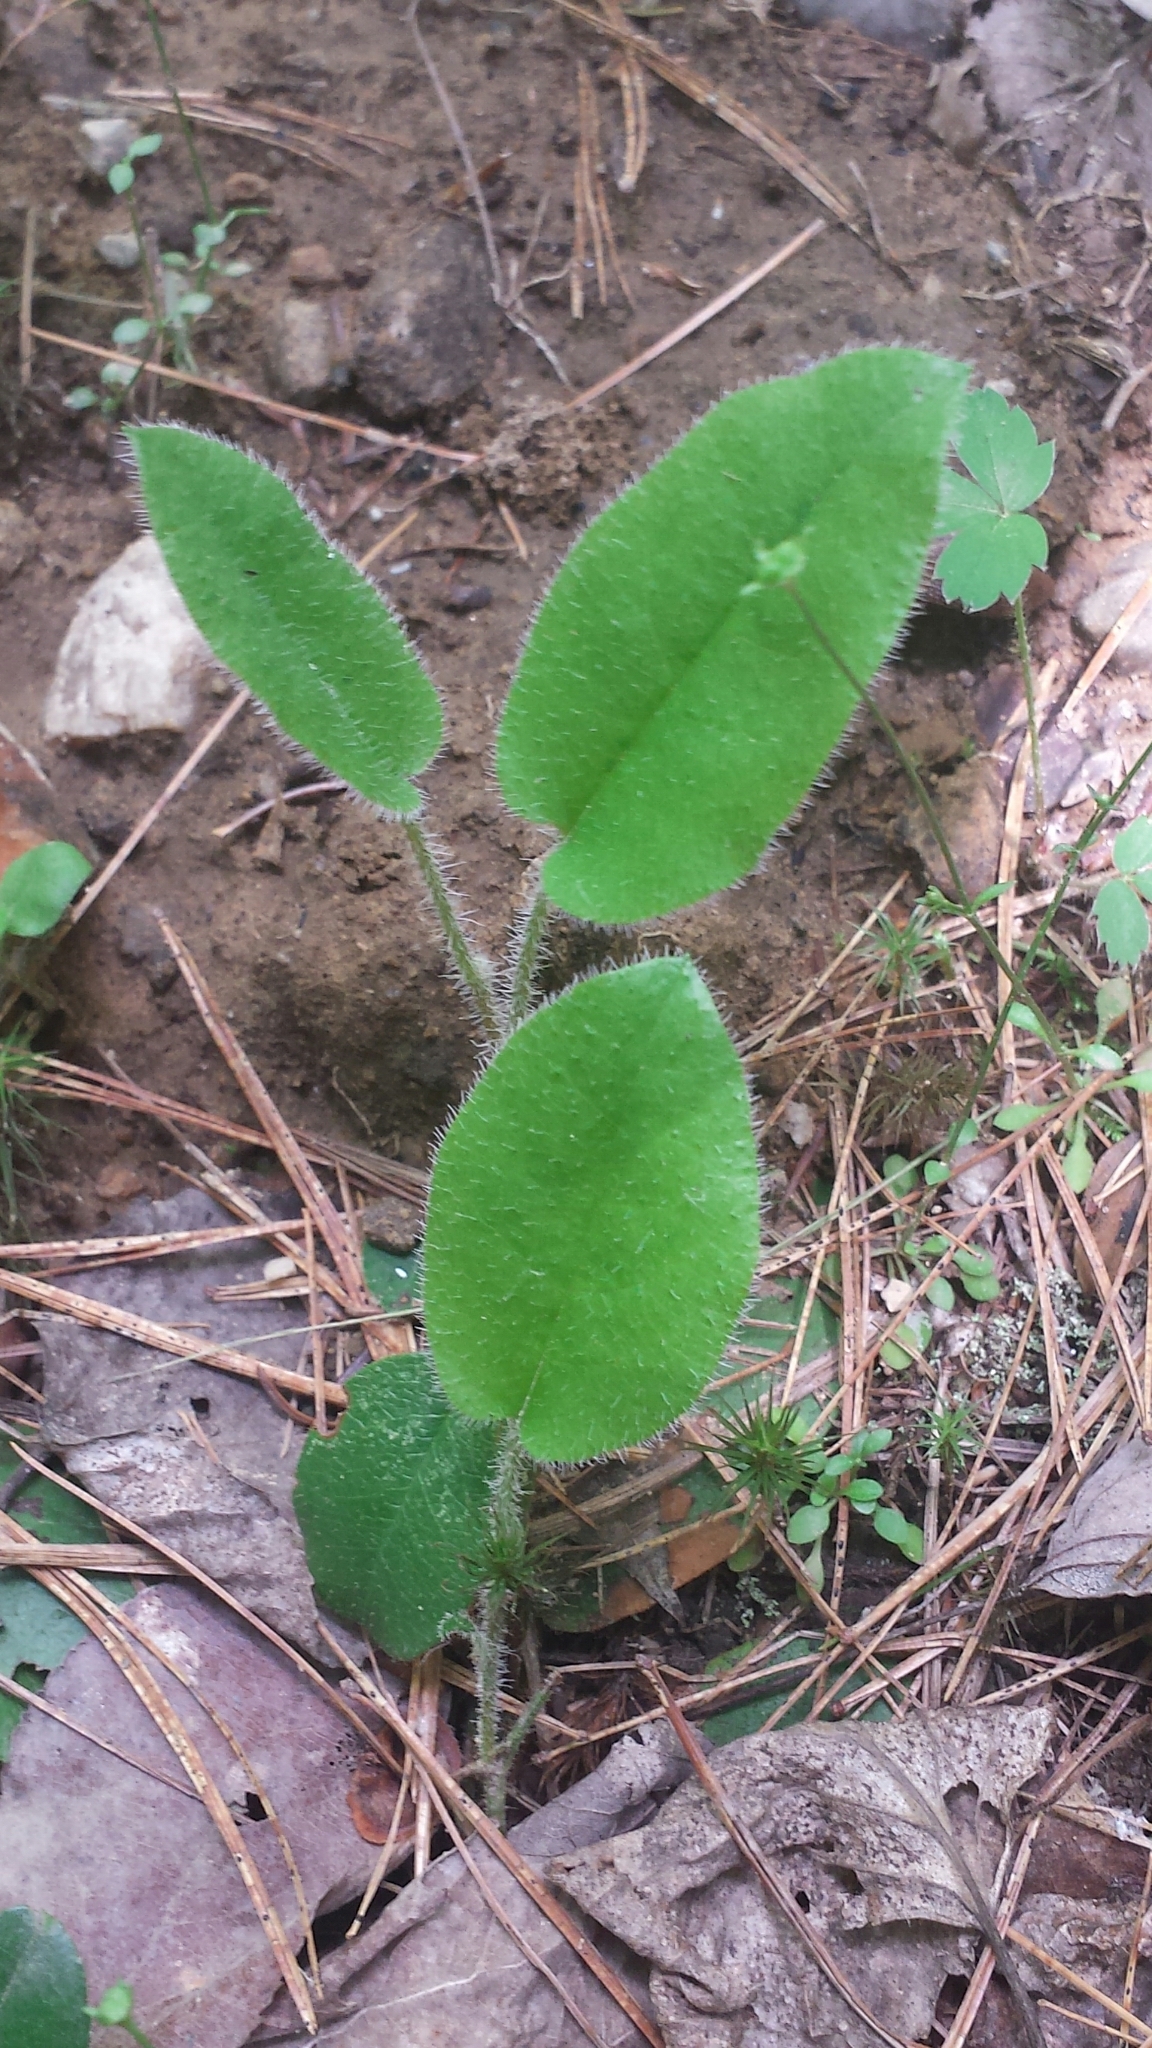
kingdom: Plantae
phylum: Tracheophyta
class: Magnoliopsida
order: Ericales
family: Ericaceae
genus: Epigaea
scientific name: Epigaea repens
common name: Gravelroot
